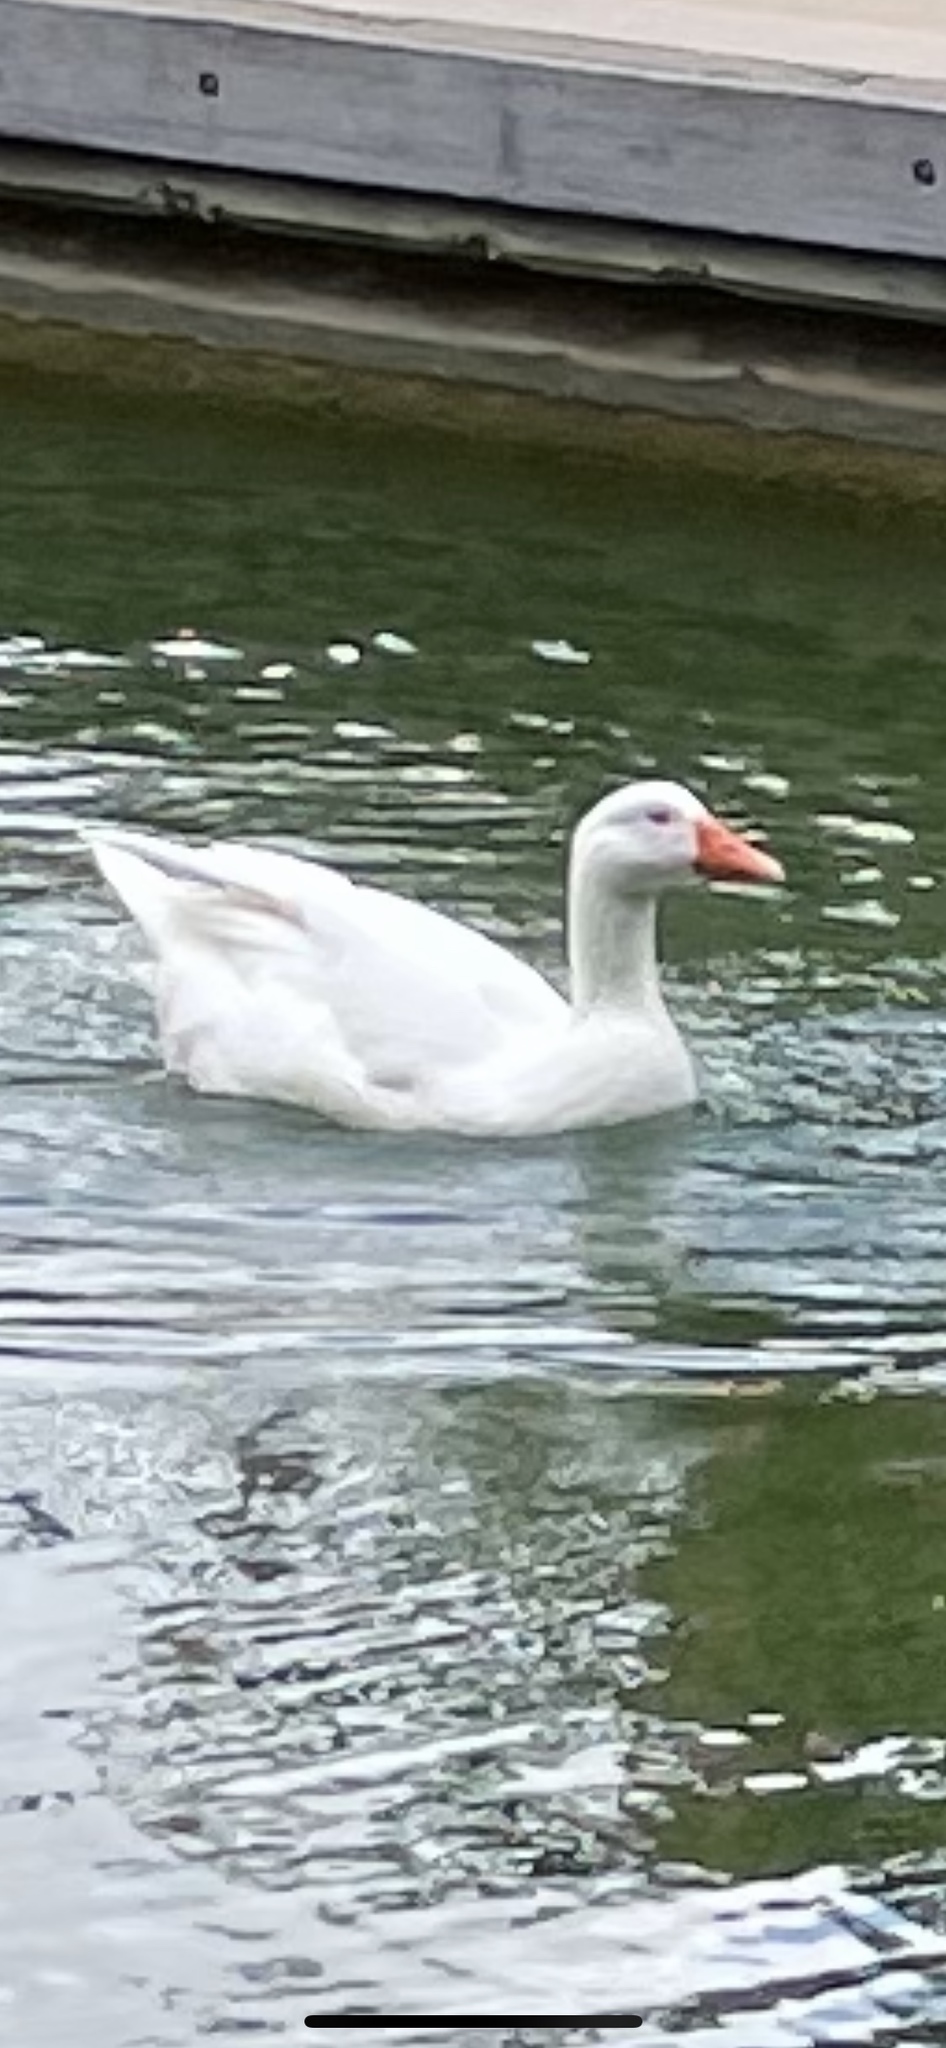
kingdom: Animalia
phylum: Chordata
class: Aves
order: Anseriformes
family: Anatidae
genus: Anser
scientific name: Anser anser
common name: Greylag goose
